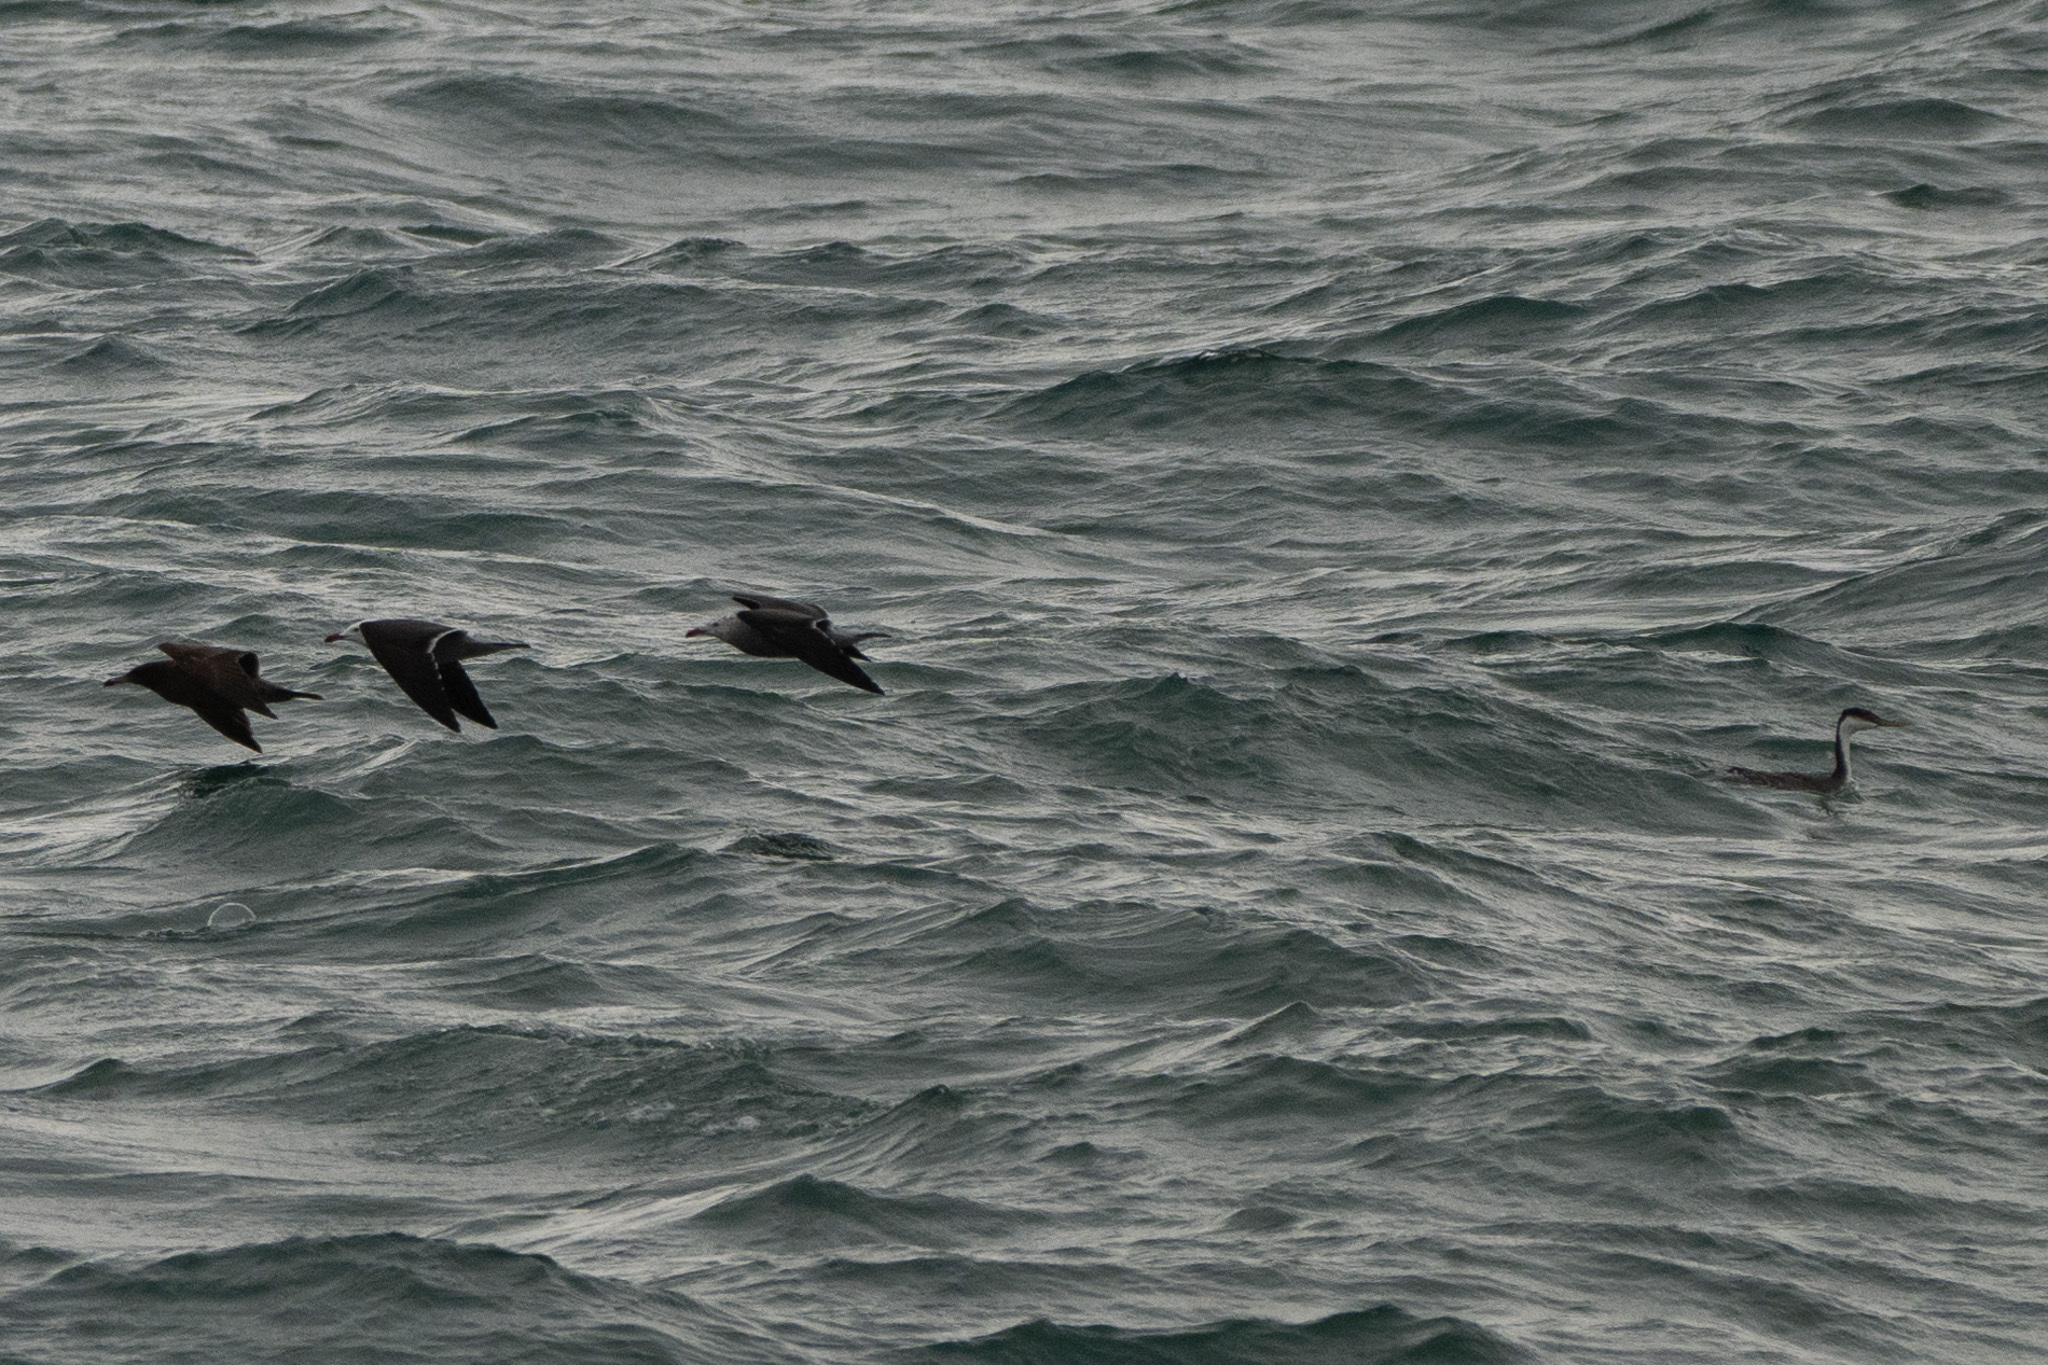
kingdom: Animalia
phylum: Chordata
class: Aves
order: Podicipediformes
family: Podicipedidae
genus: Aechmophorus
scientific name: Aechmophorus occidentalis
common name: Western grebe
